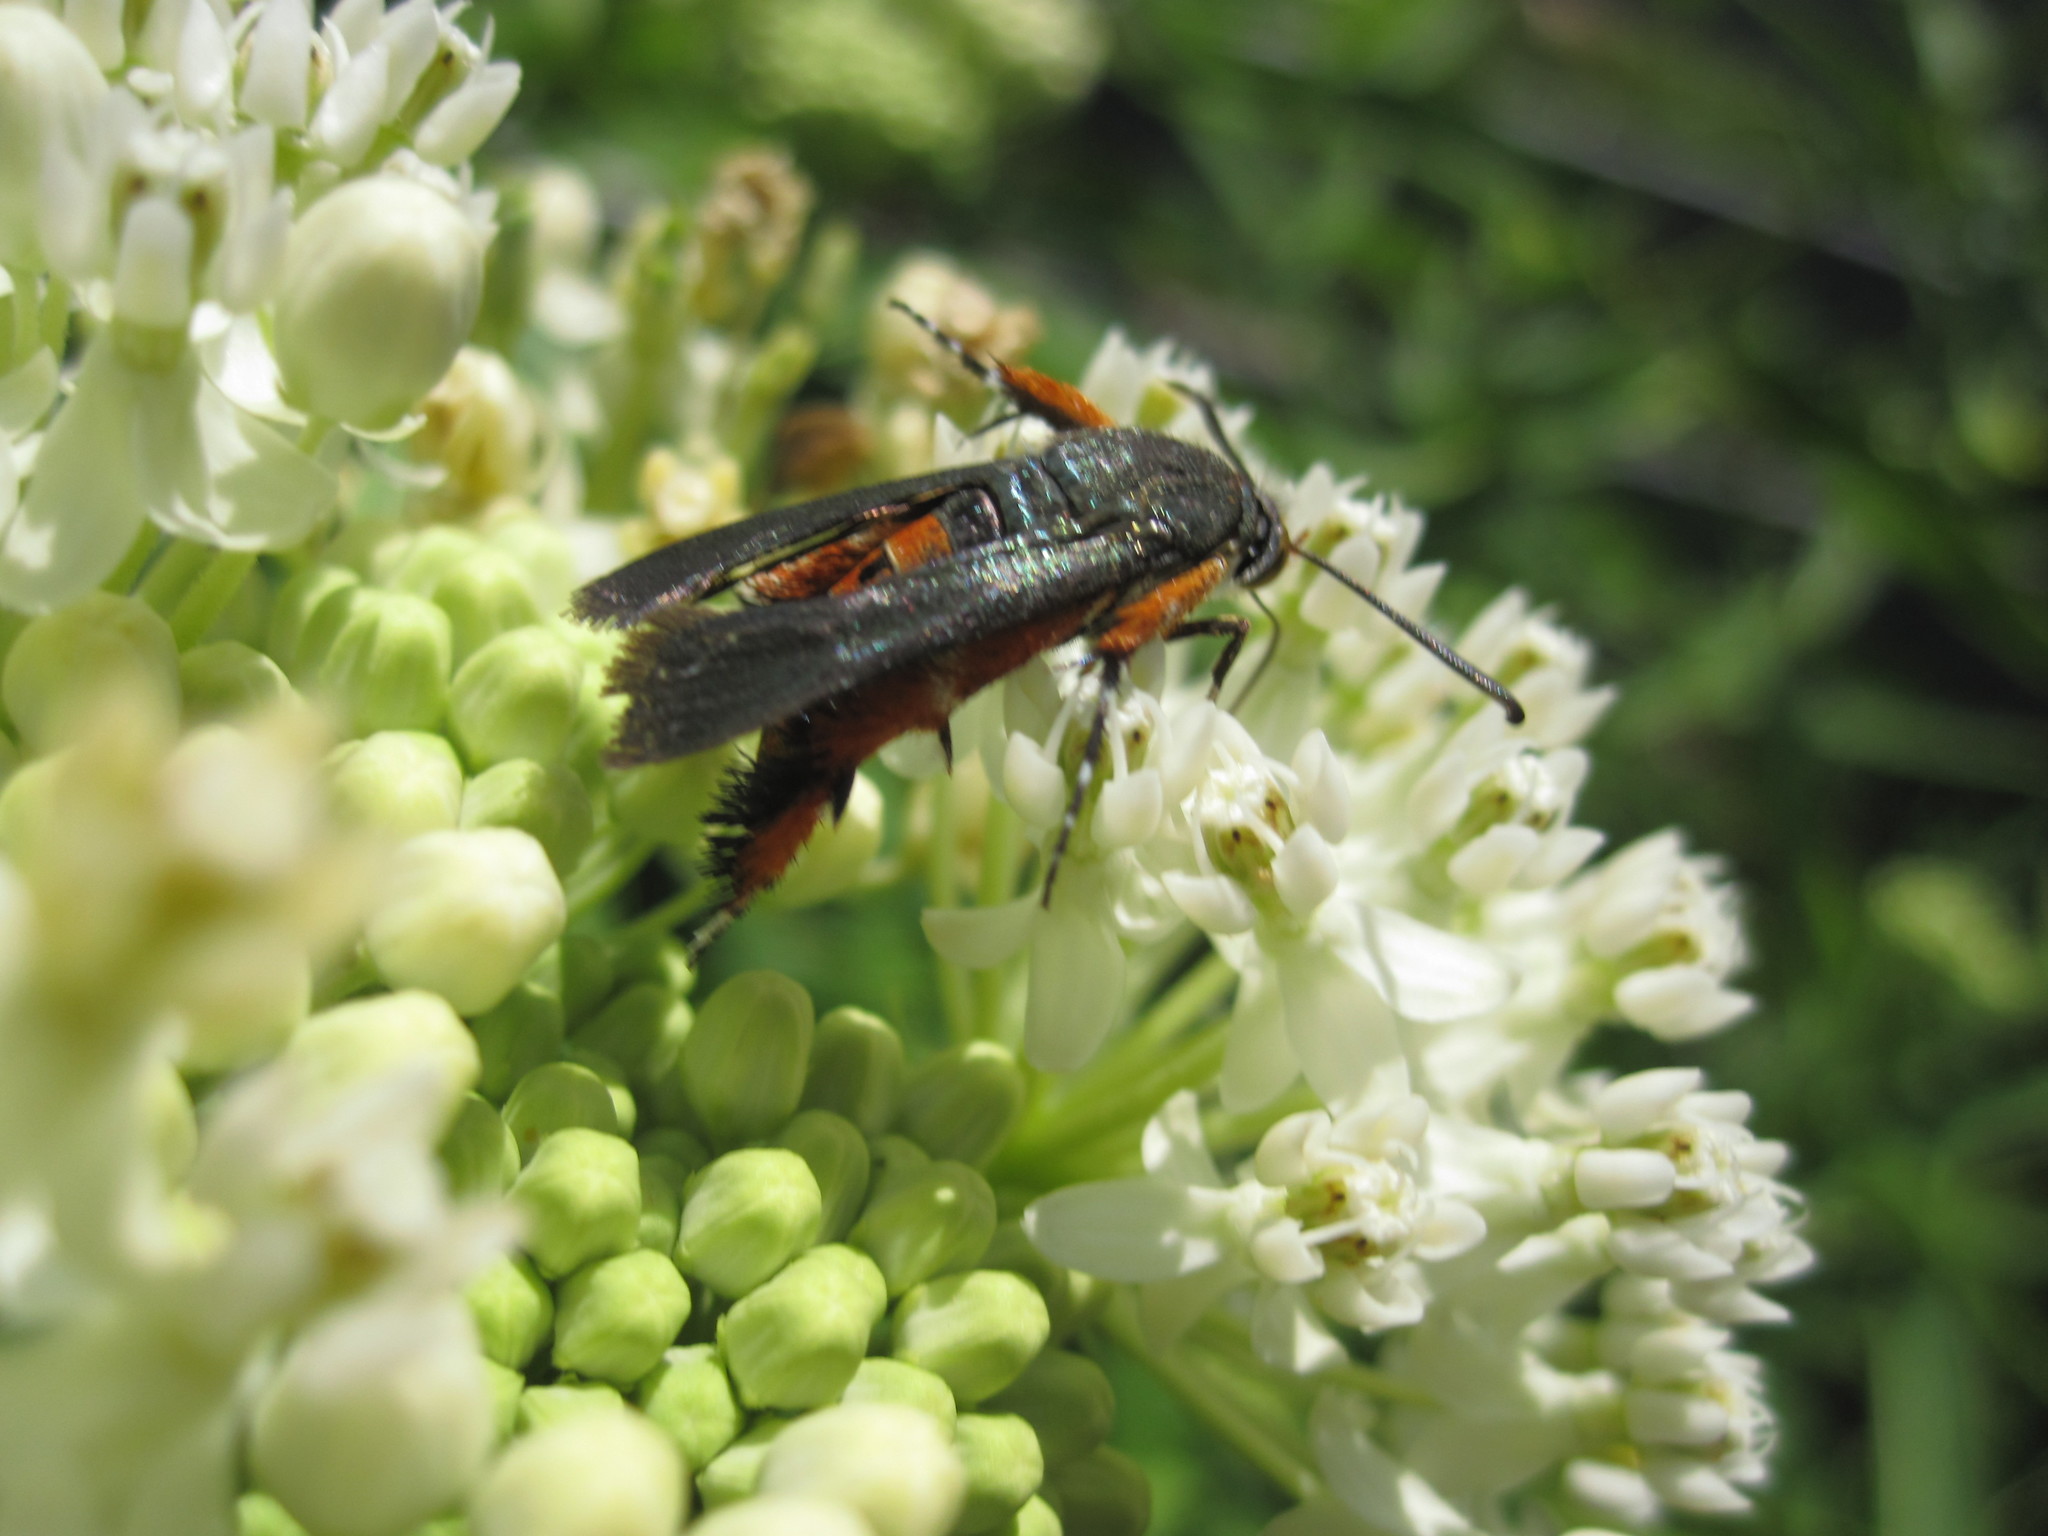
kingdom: Animalia
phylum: Arthropoda
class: Insecta
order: Lepidoptera
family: Sesiidae
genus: Eichlinia
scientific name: Eichlinia cucurbitae
